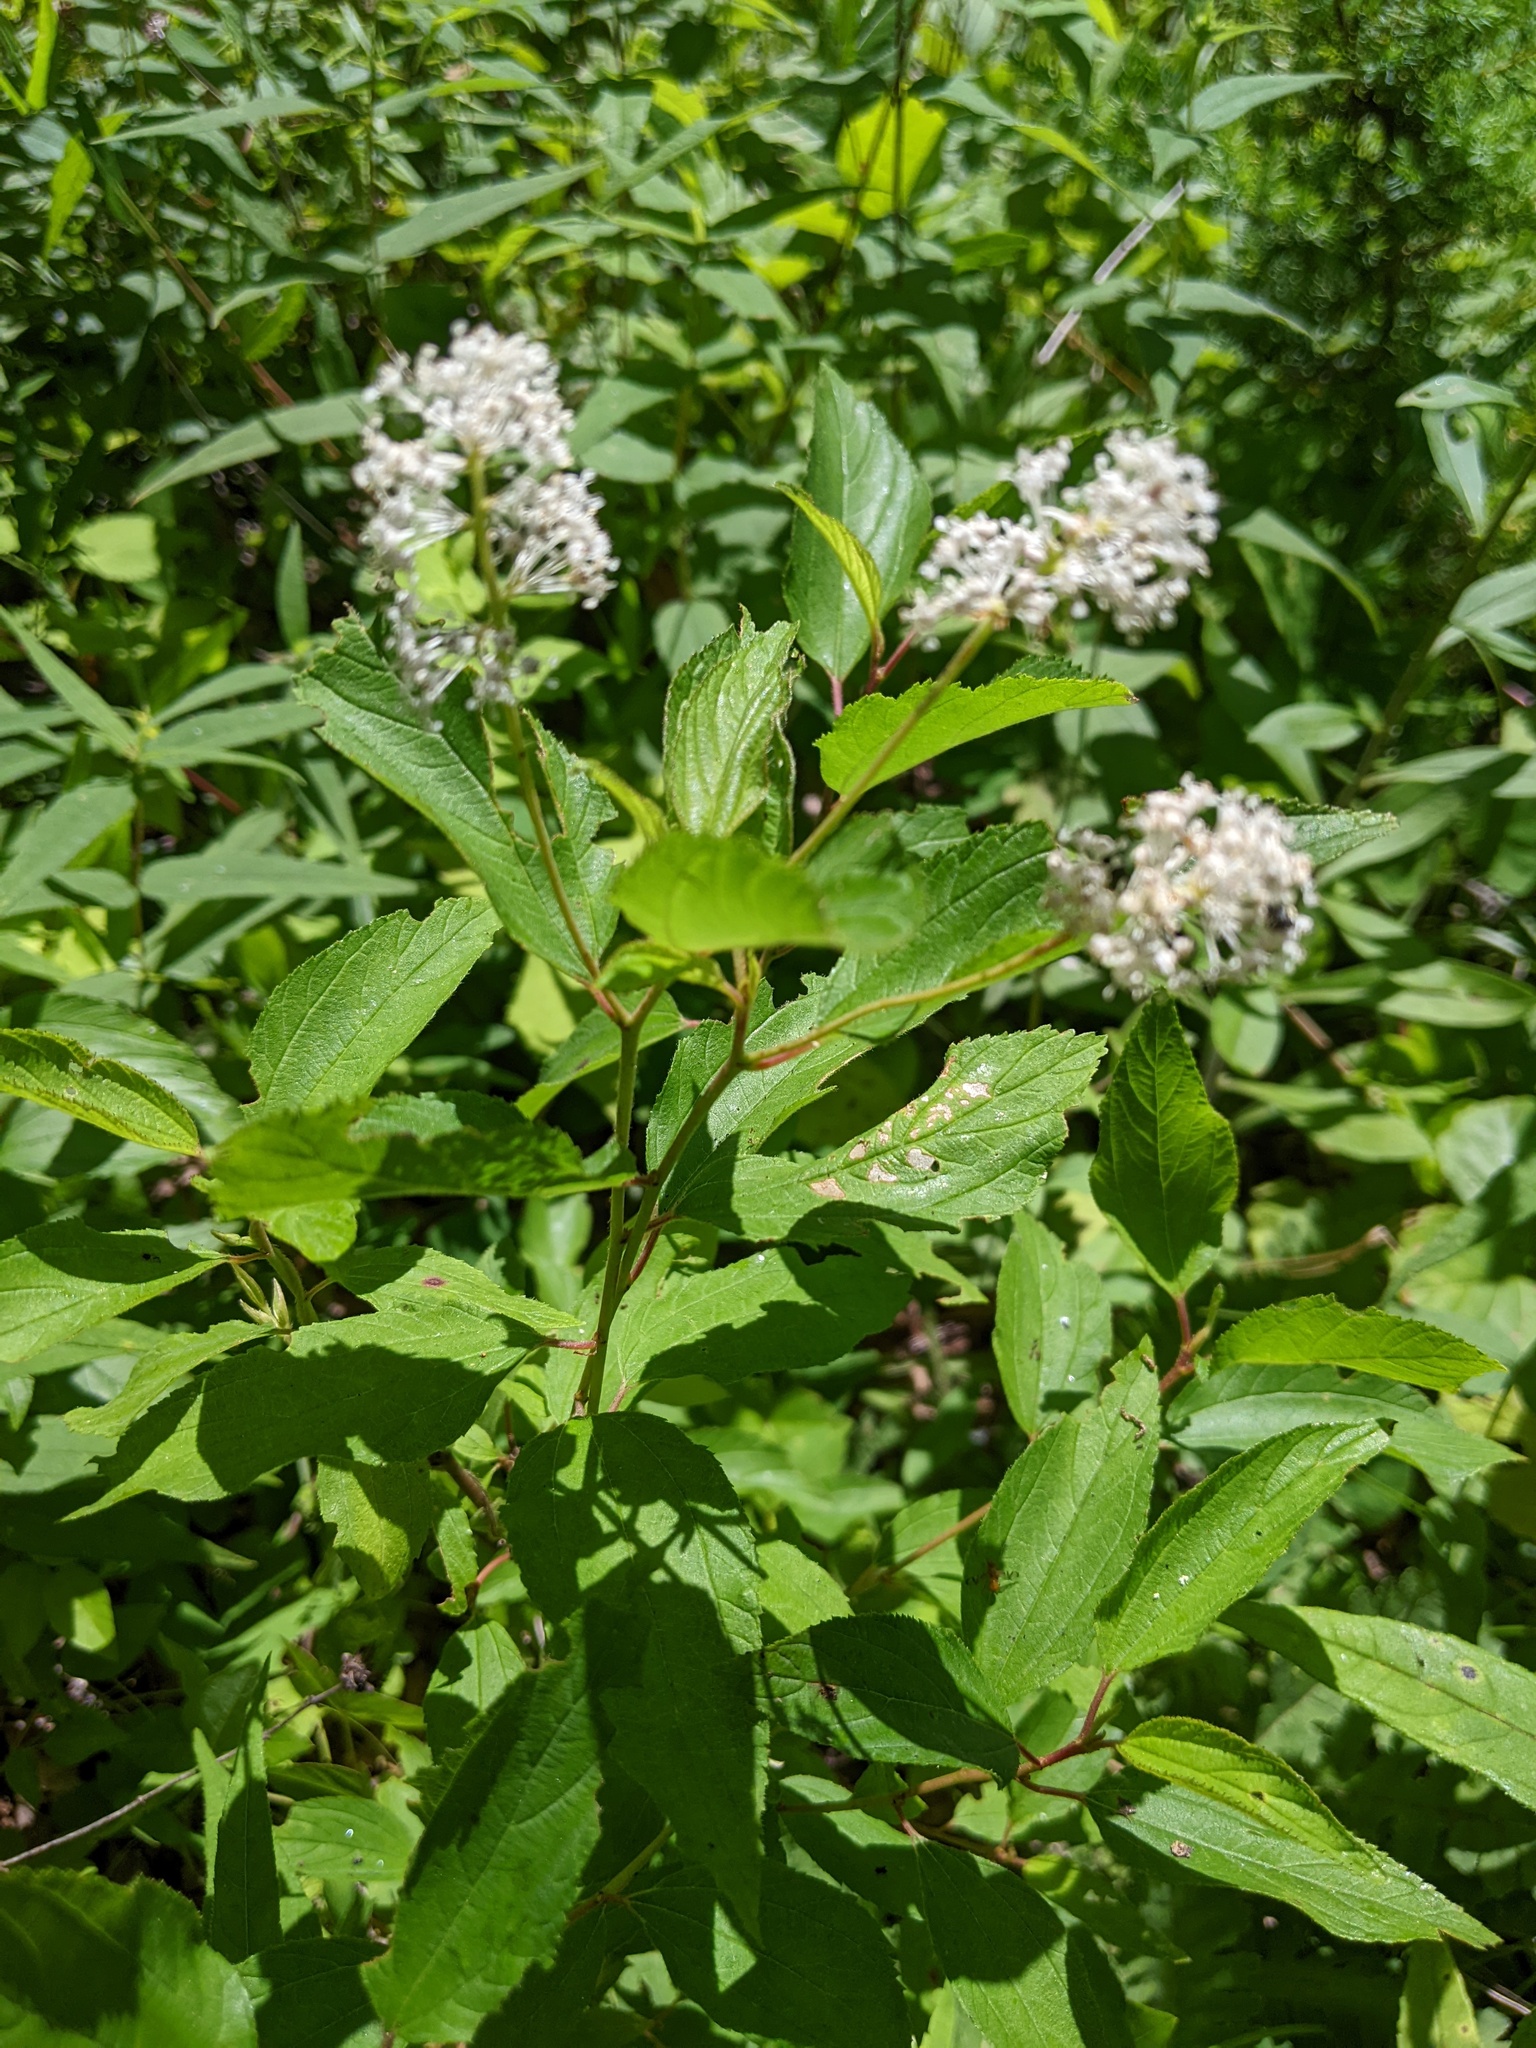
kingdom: Plantae
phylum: Tracheophyta
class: Magnoliopsida
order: Rosales
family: Rhamnaceae
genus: Ceanothus
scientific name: Ceanothus americanus
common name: Redroot
